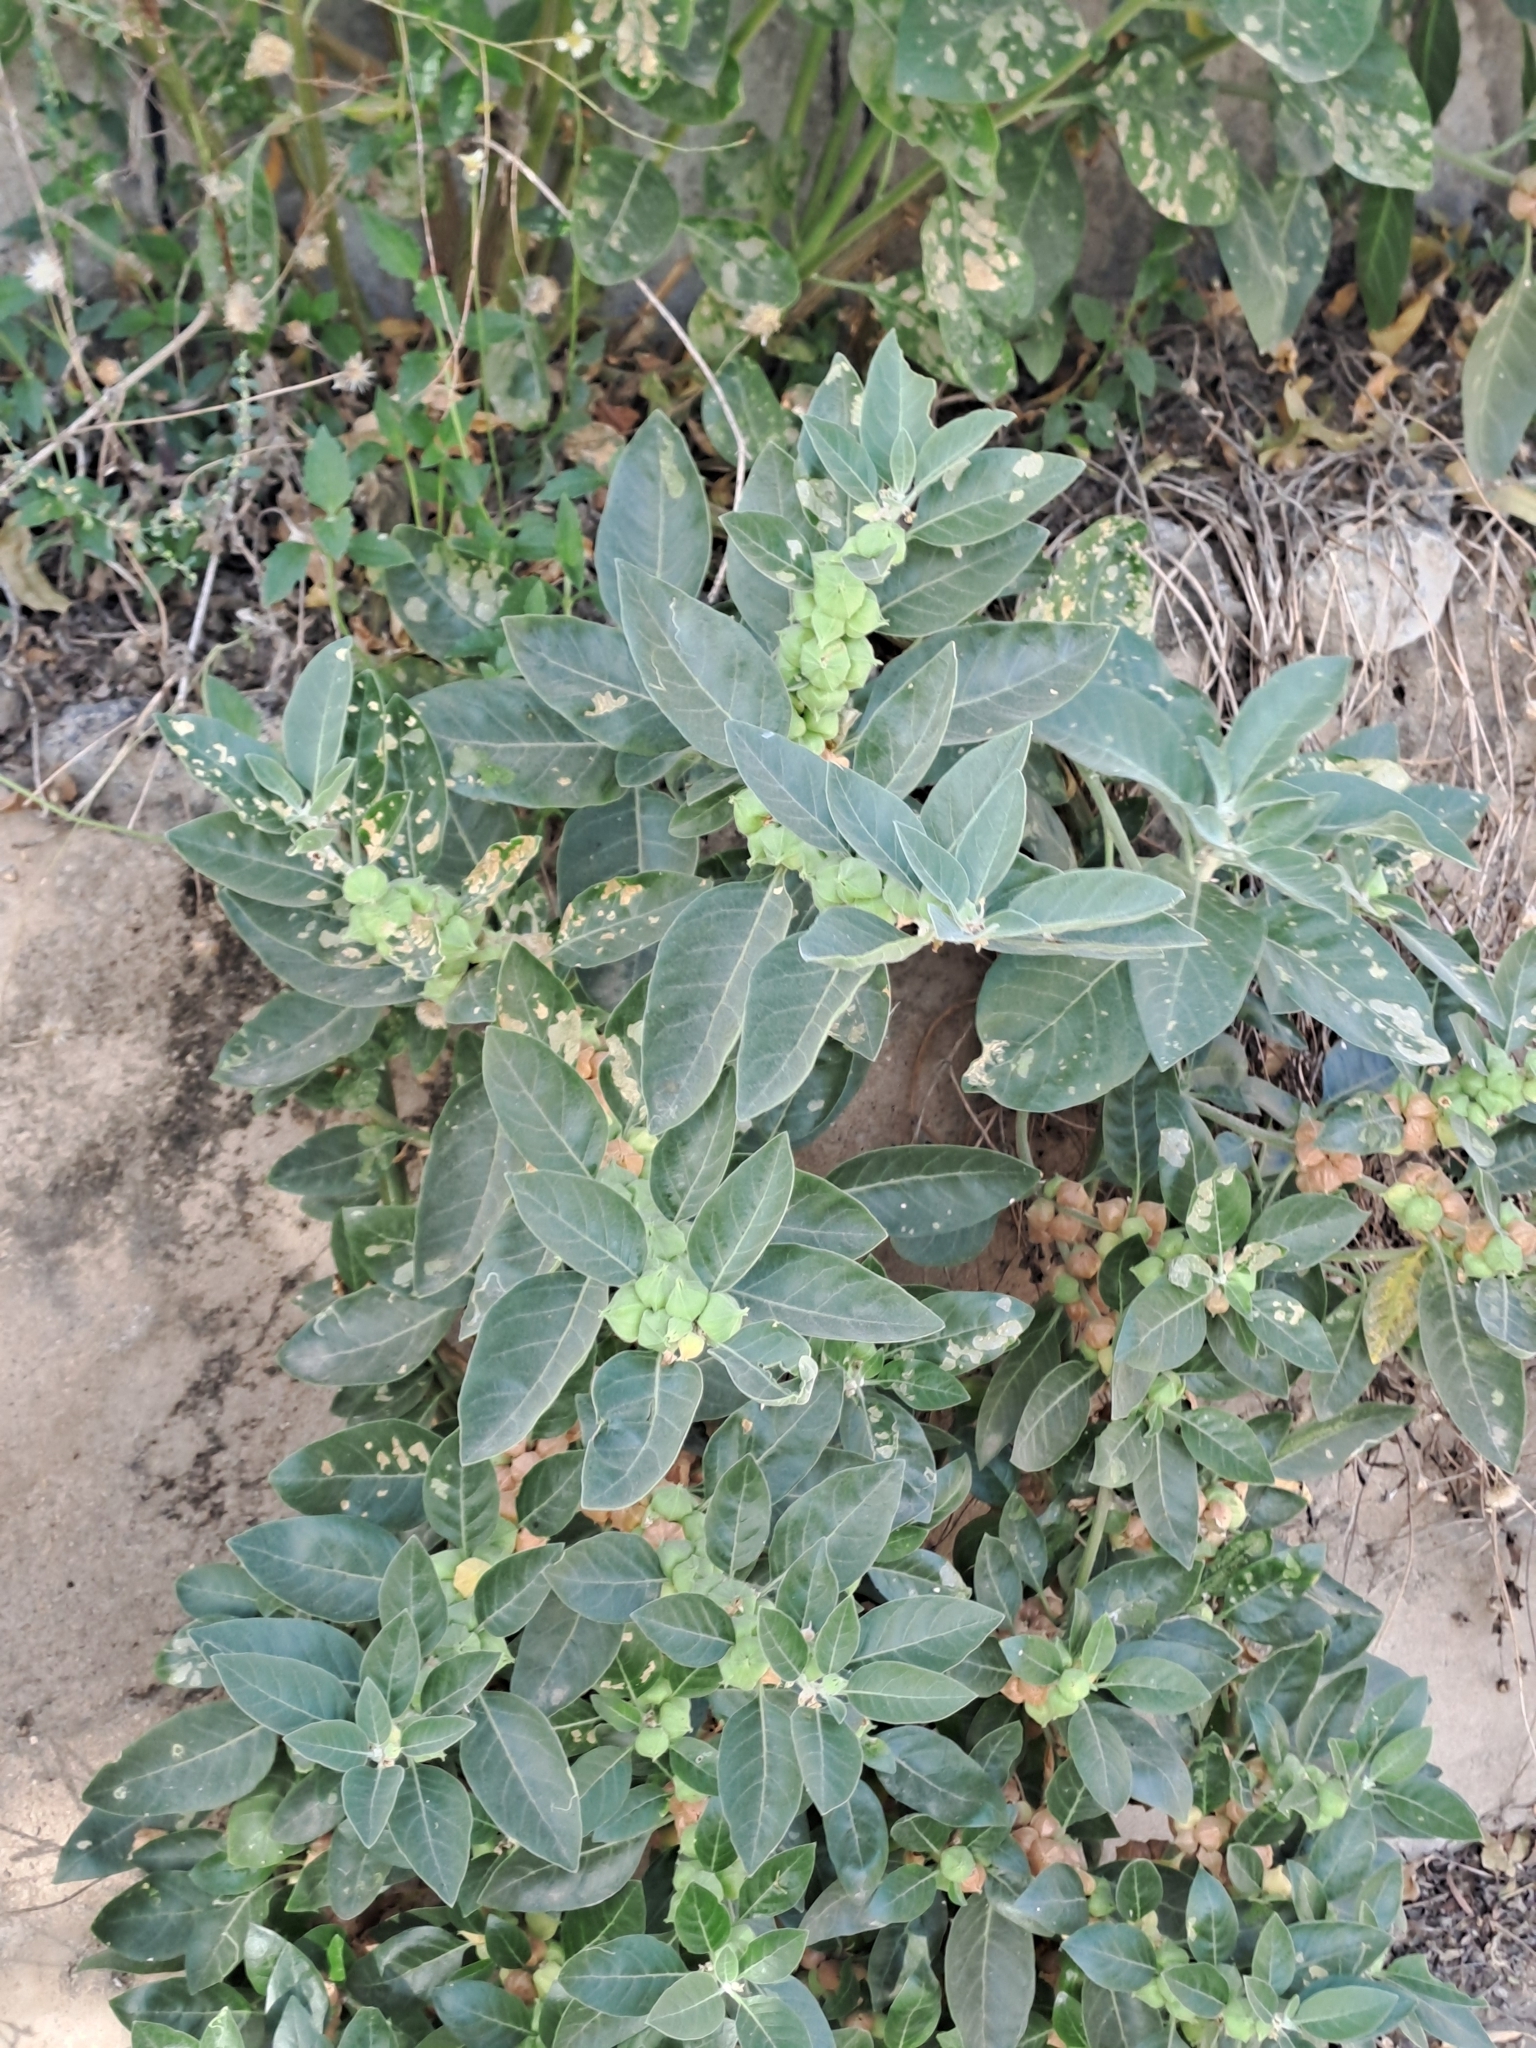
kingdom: Plantae
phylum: Tracheophyta
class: Magnoliopsida
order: Solanales
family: Solanaceae
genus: Withania
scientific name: Withania somnifera
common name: Winter-cherry
